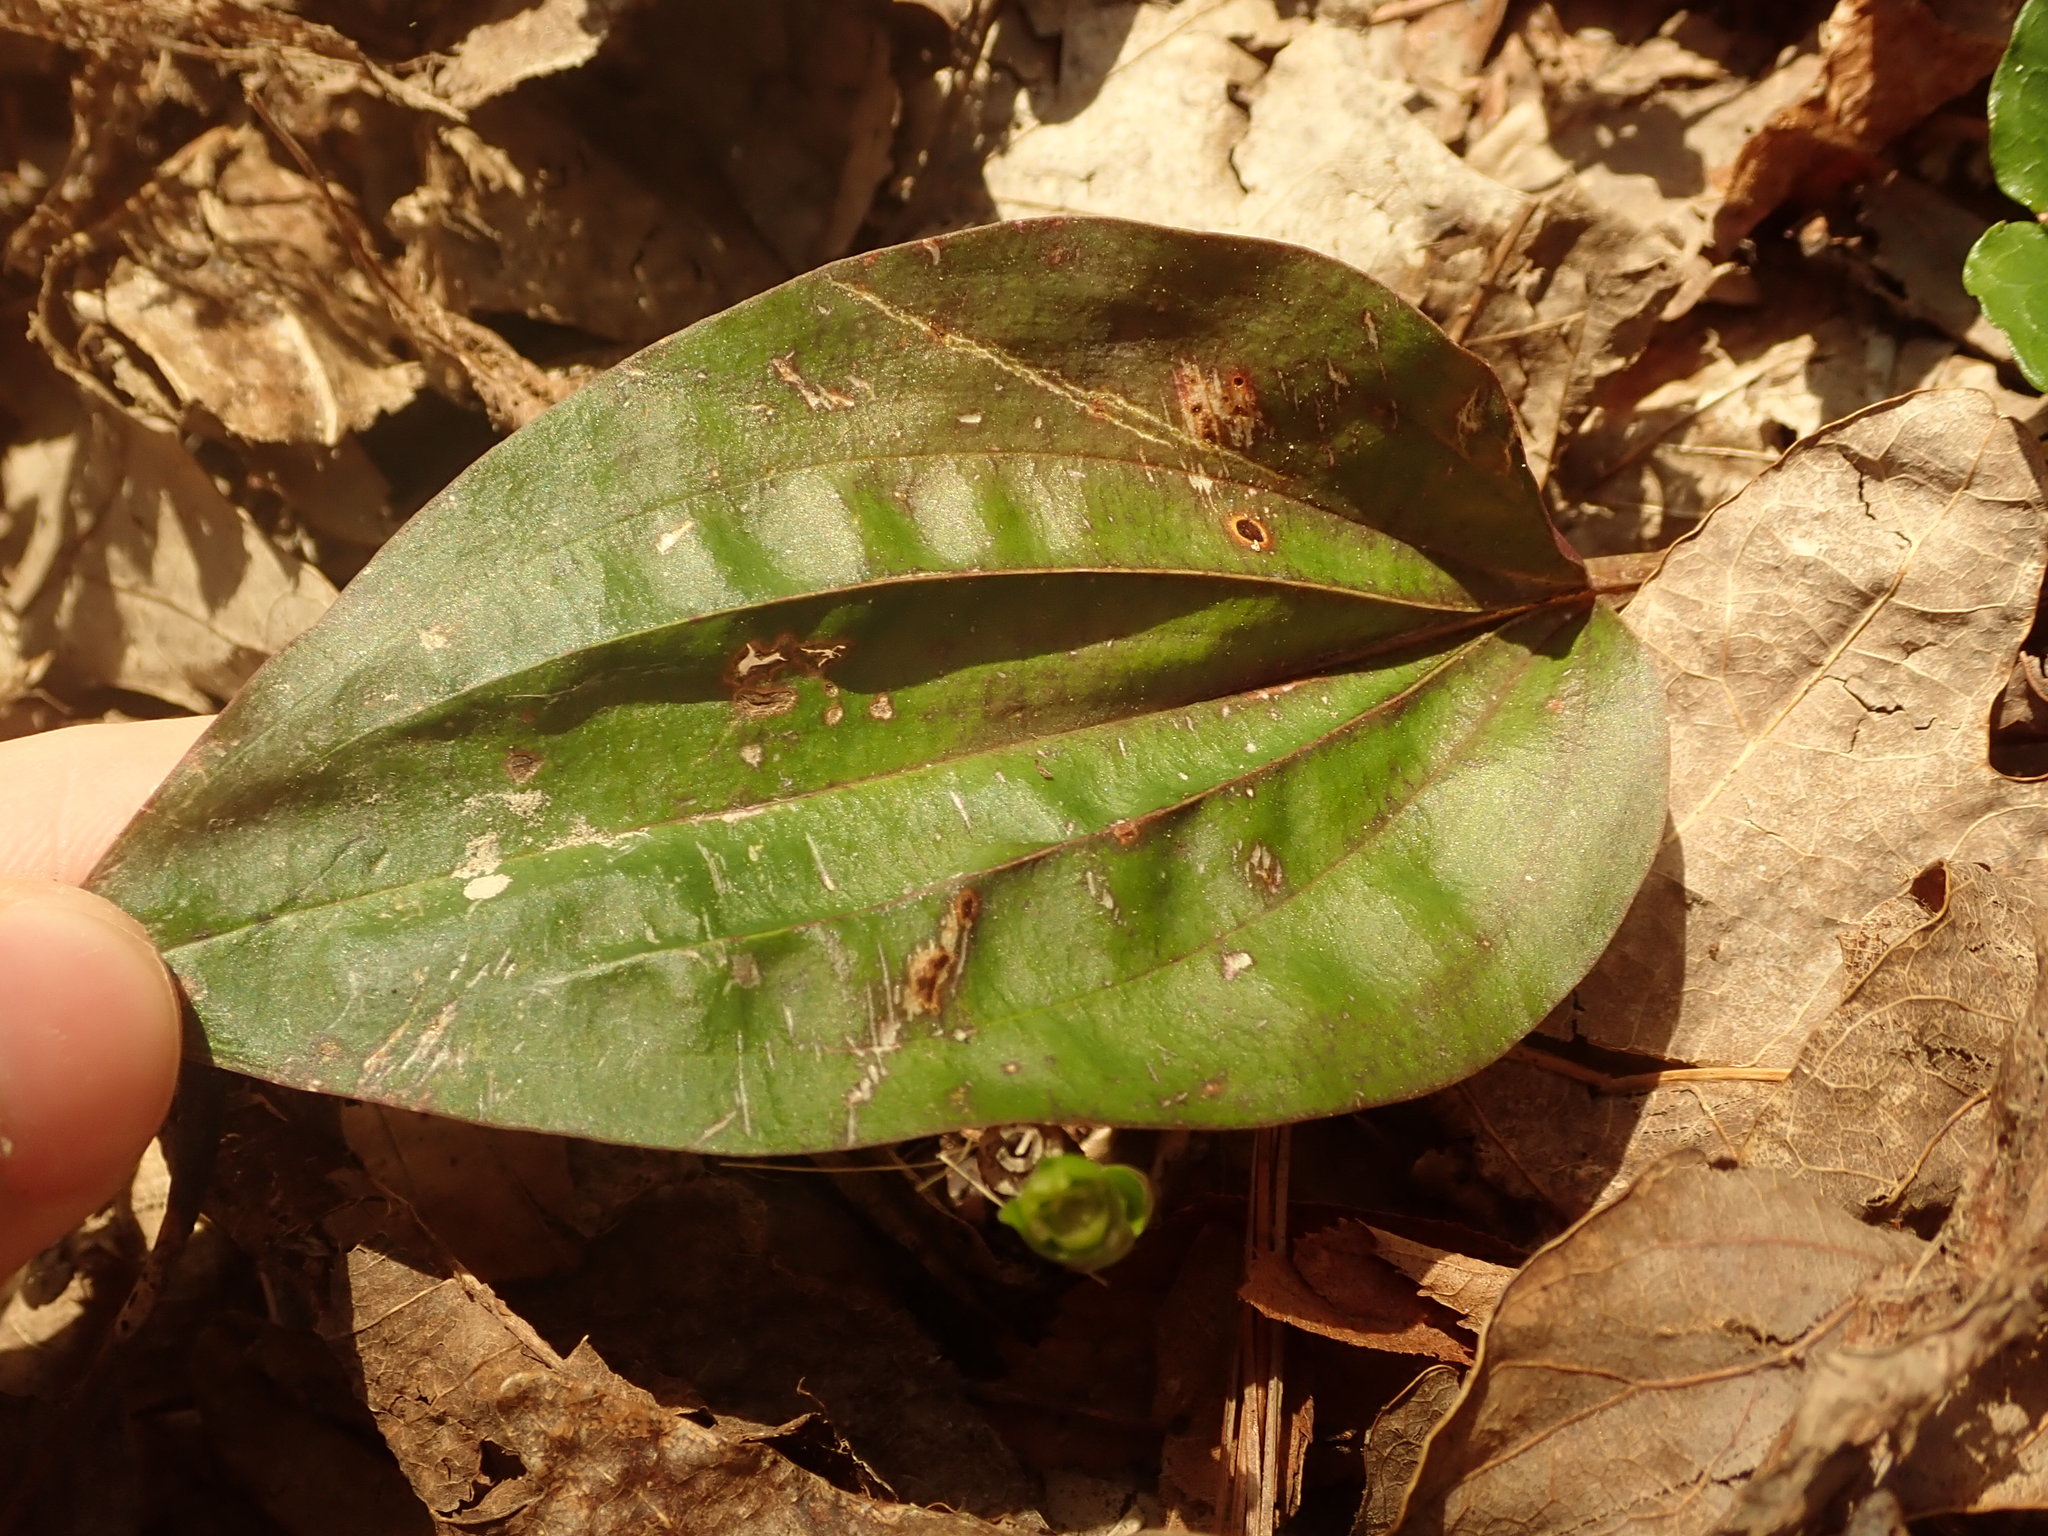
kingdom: Plantae
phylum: Tracheophyta
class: Liliopsida
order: Asparagales
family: Orchidaceae
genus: Tipularia
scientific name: Tipularia discolor
